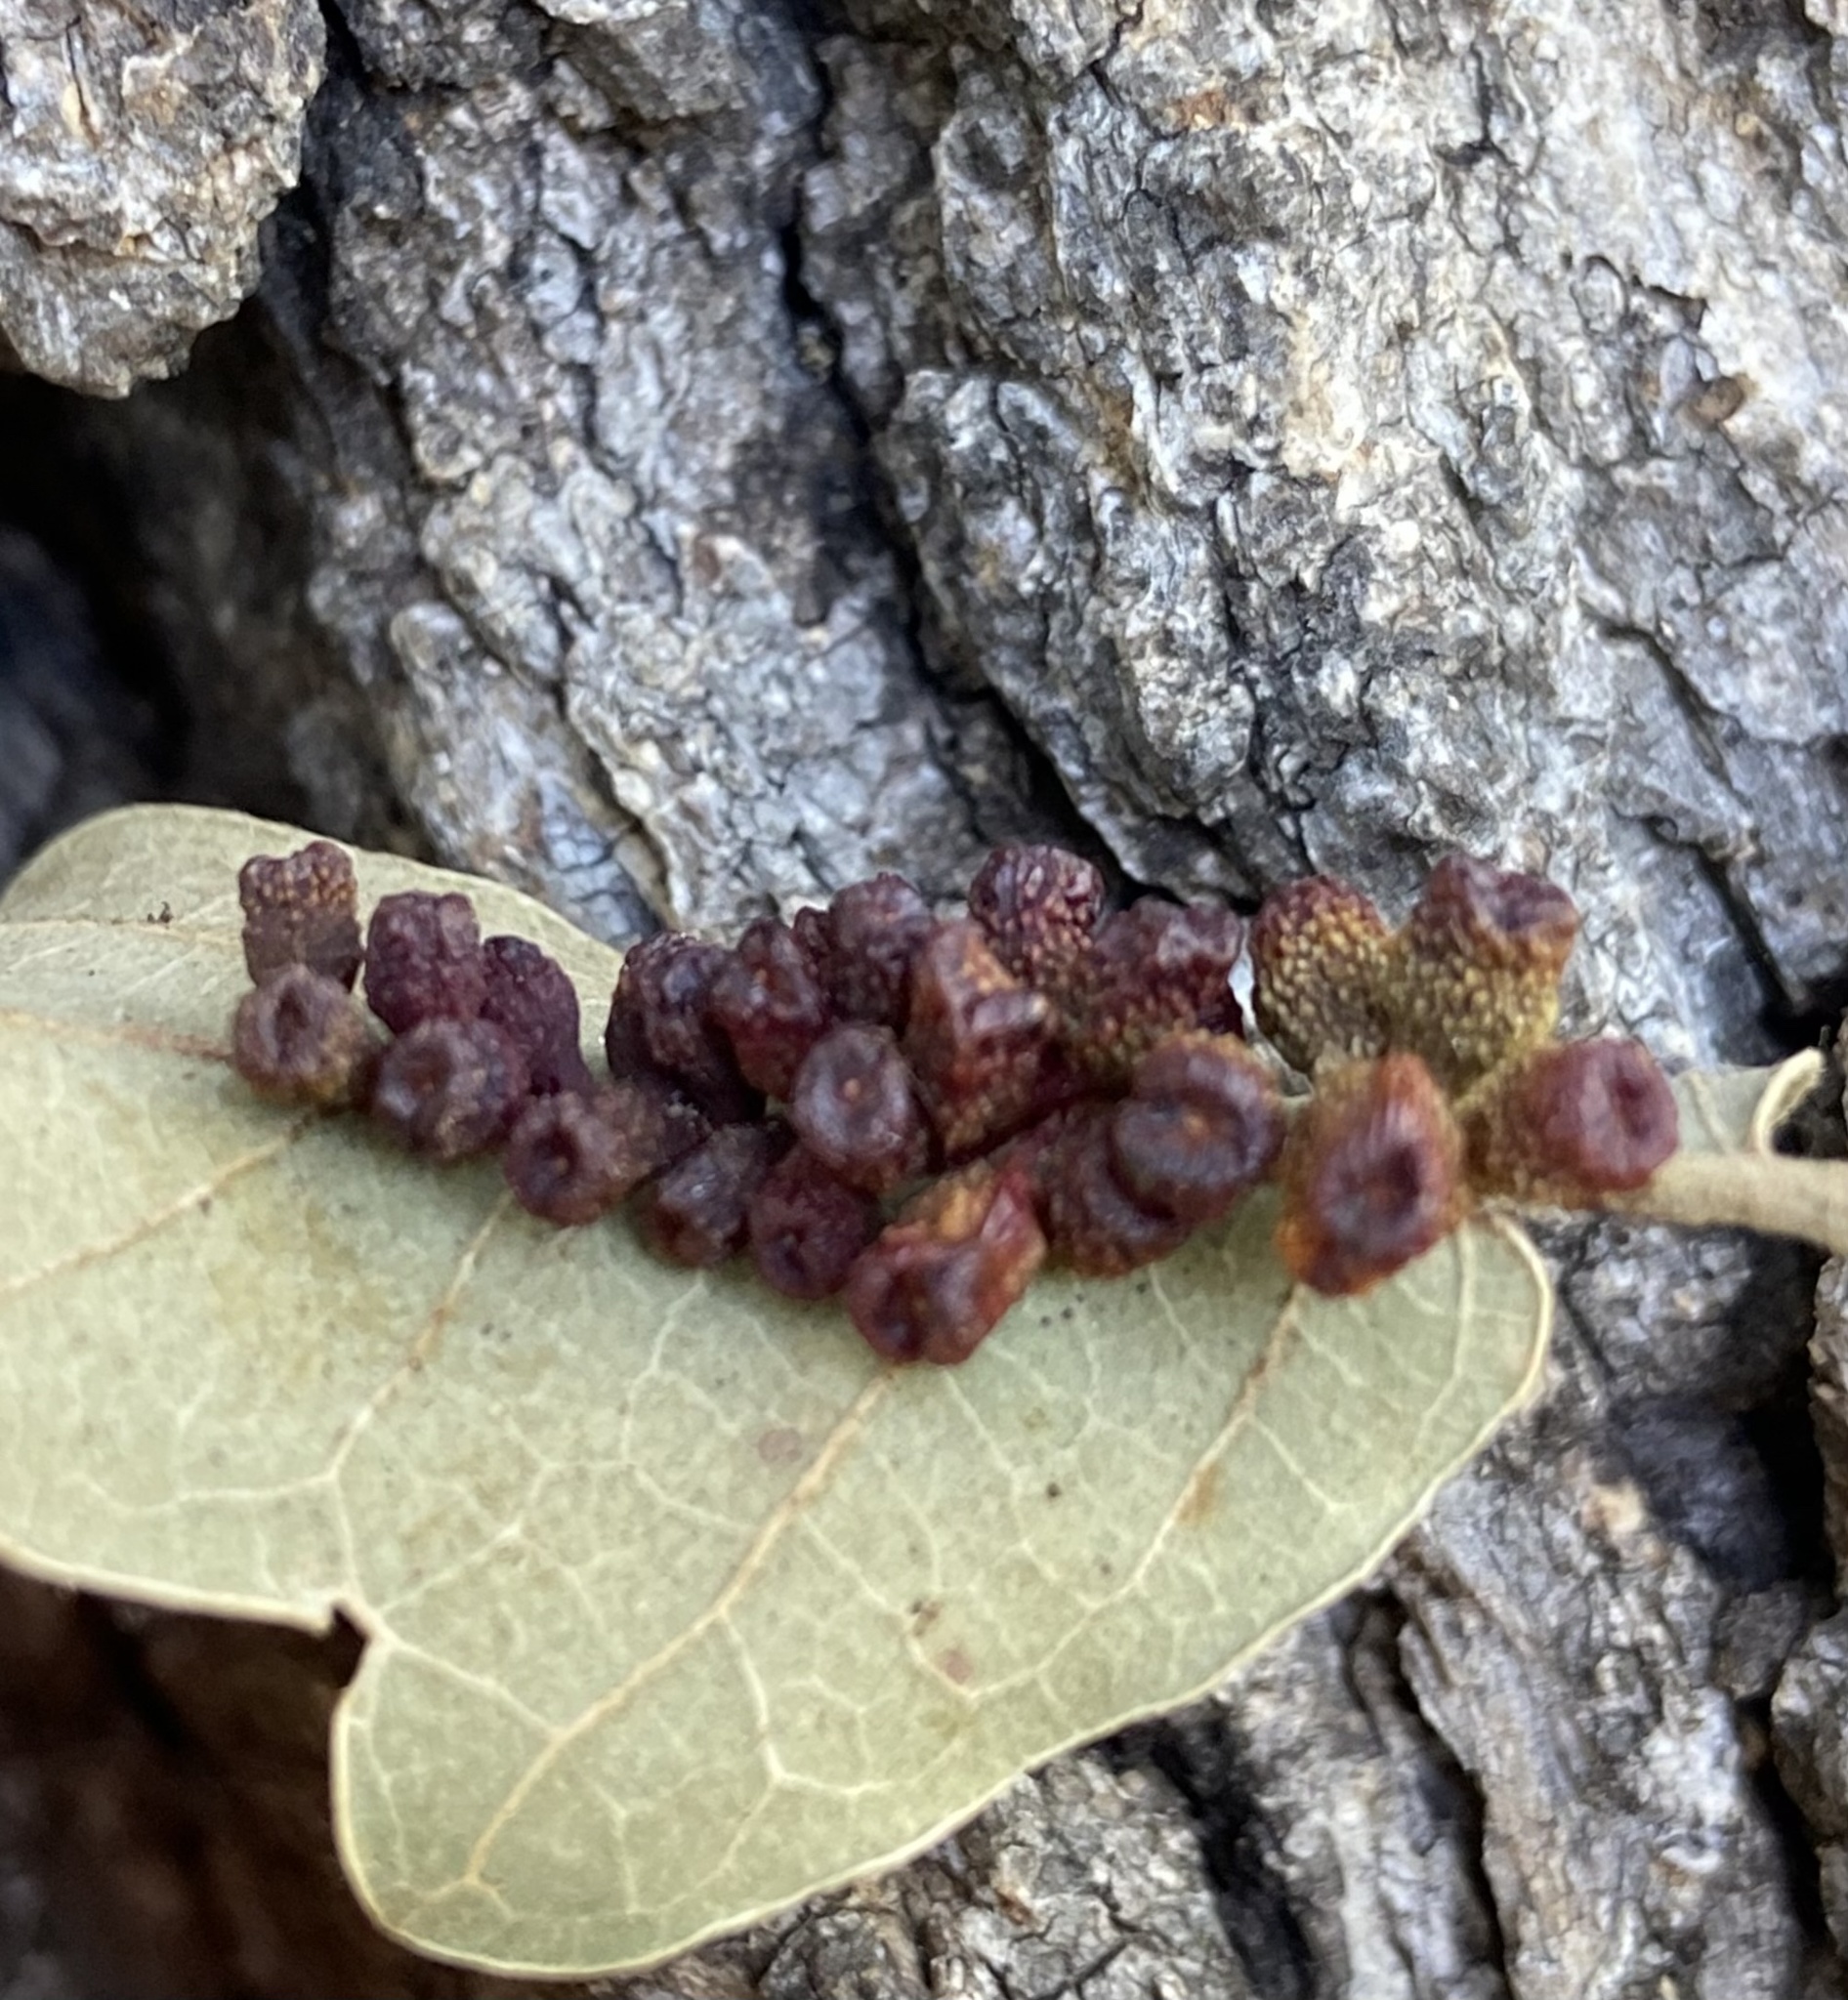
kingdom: Animalia
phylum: Arthropoda
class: Insecta
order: Hymenoptera
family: Cynipidae
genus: Andricus
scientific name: Andricus lustrans
